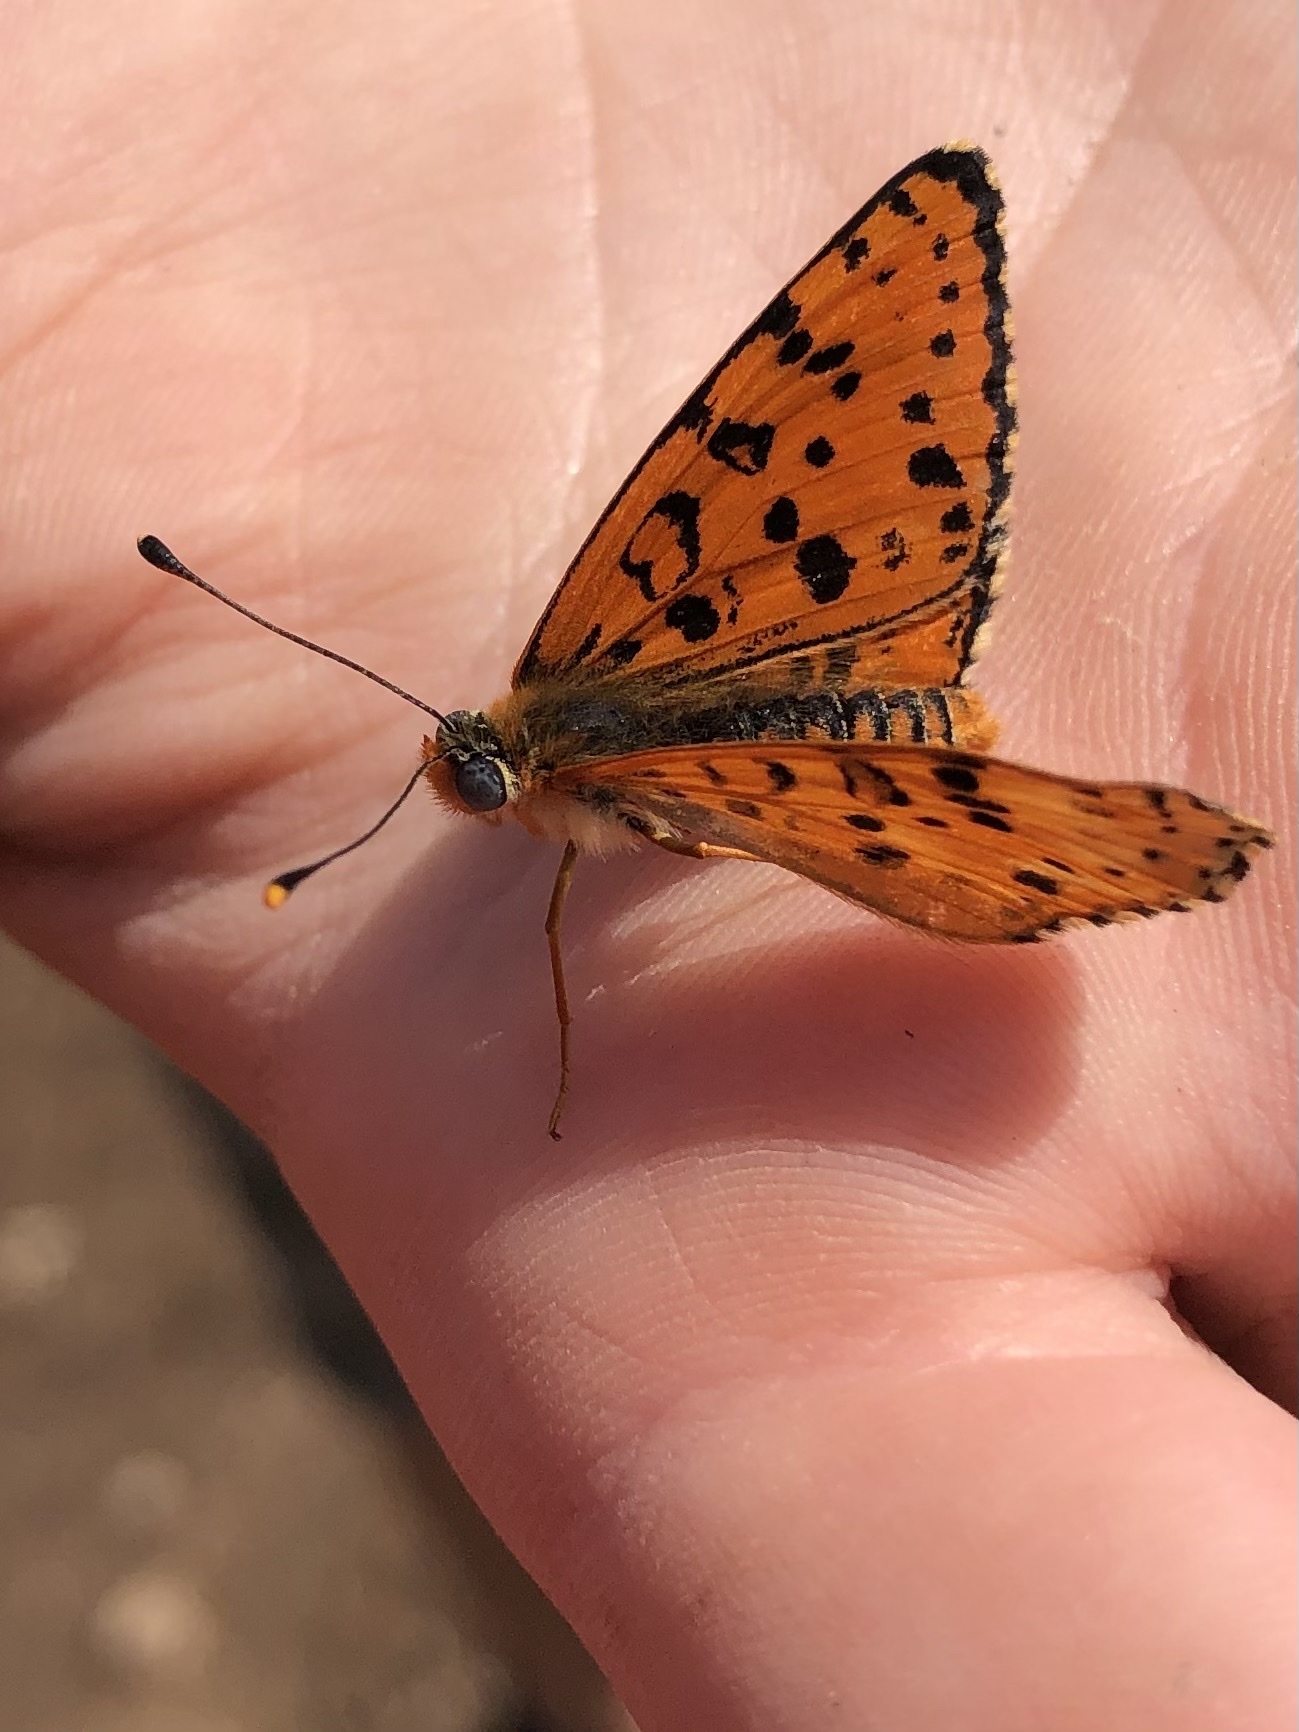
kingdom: Animalia
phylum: Arthropoda
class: Insecta
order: Lepidoptera
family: Nymphalidae
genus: Melitaea
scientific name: Melitaea didyma
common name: Spotted fritillary
